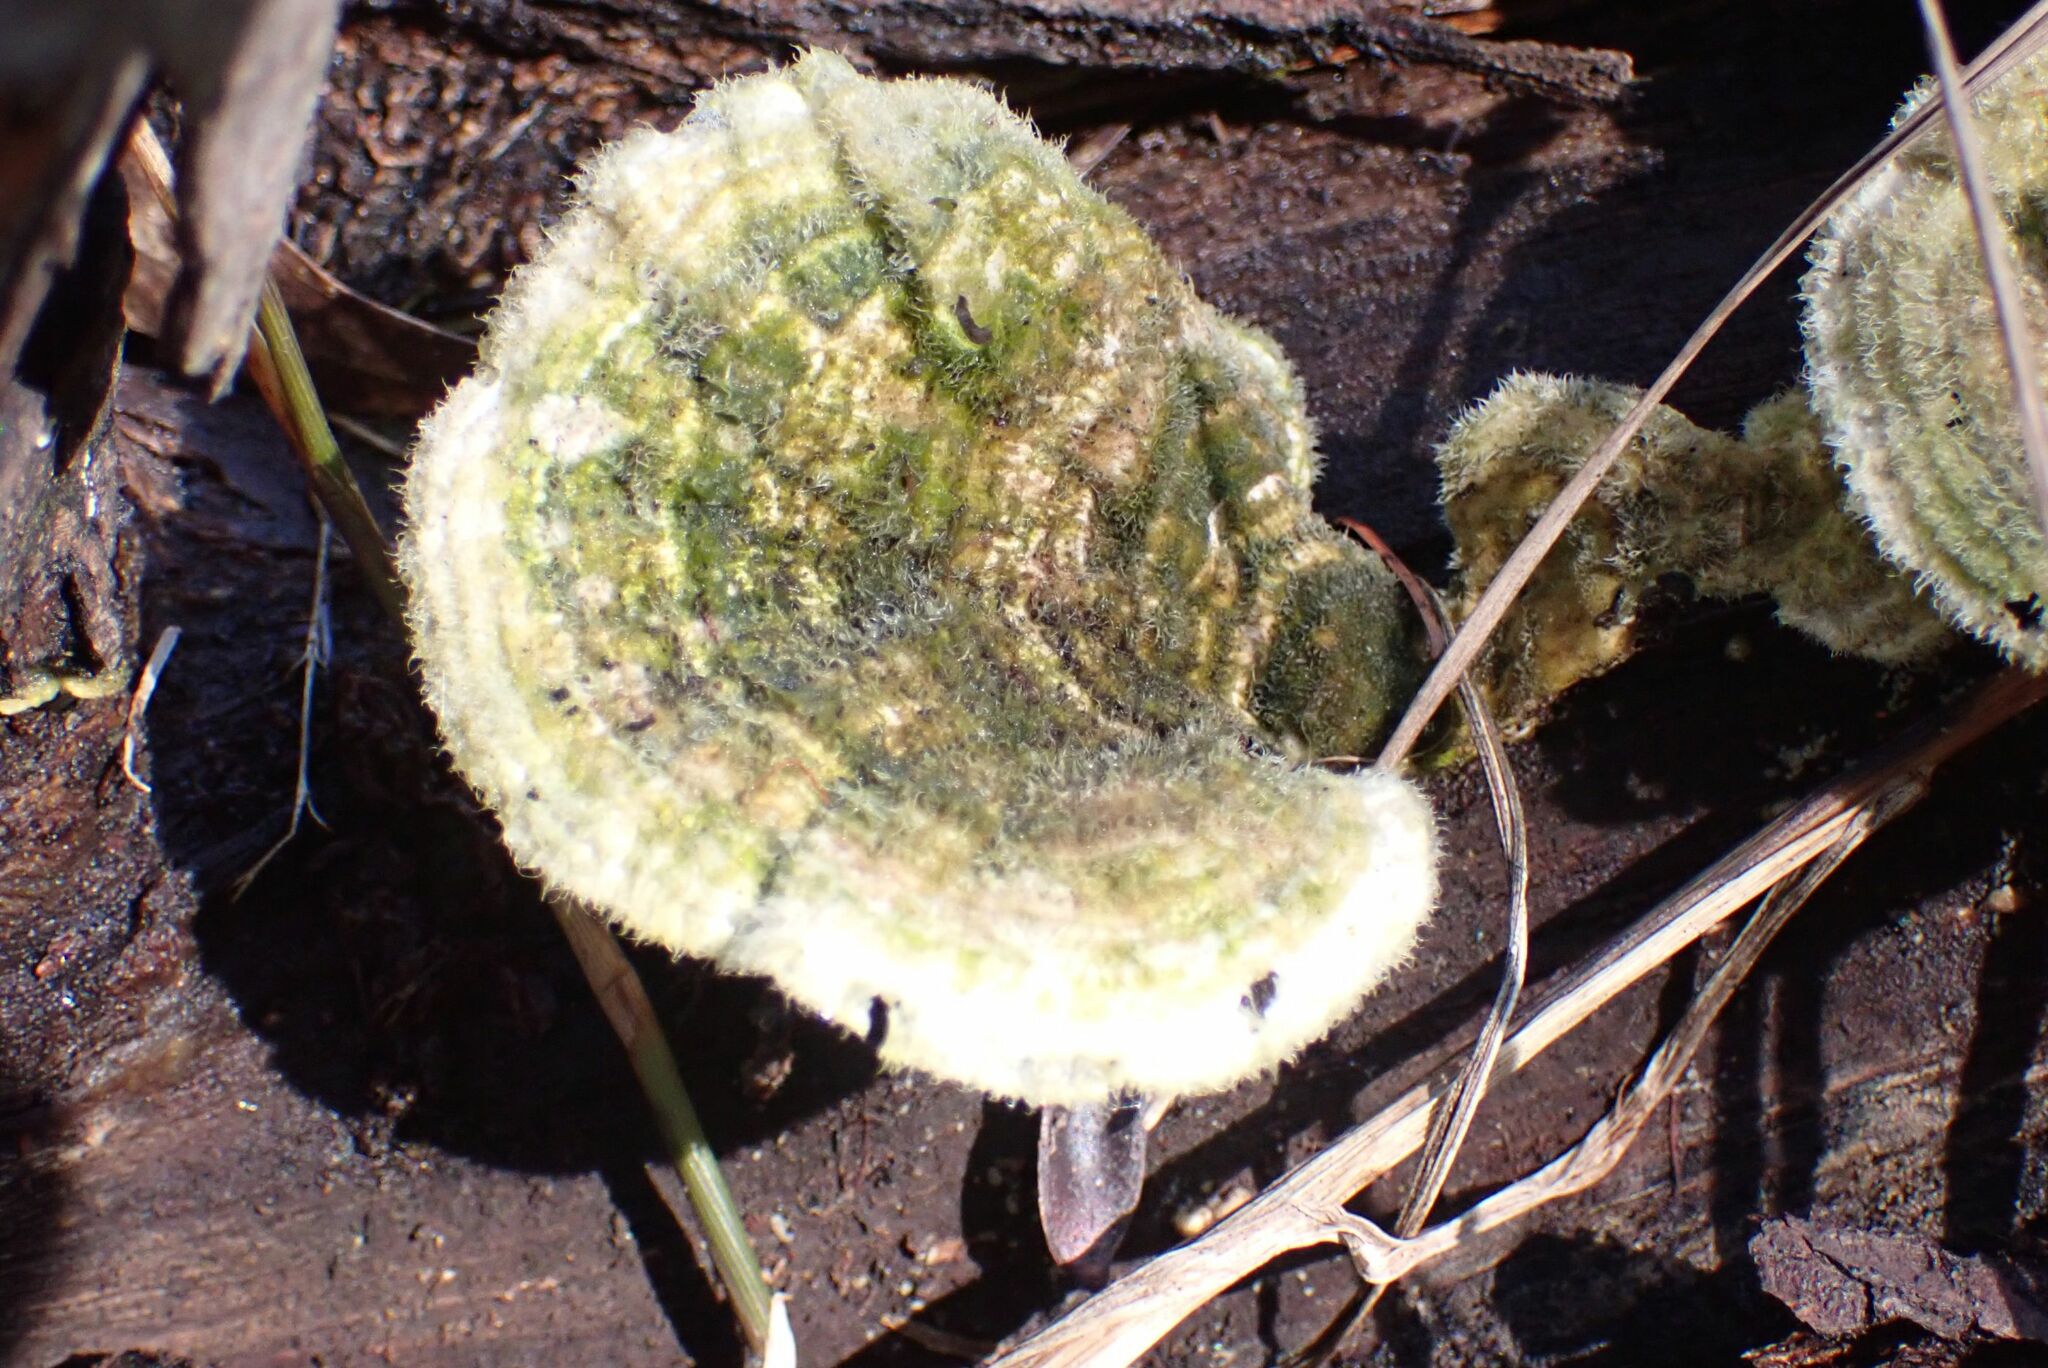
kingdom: Fungi
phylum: Basidiomycota
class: Agaricomycetes
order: Polyporales
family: Polyporaceae
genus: Trametes
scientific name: Trametes hirsuta
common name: Hairy bracket
